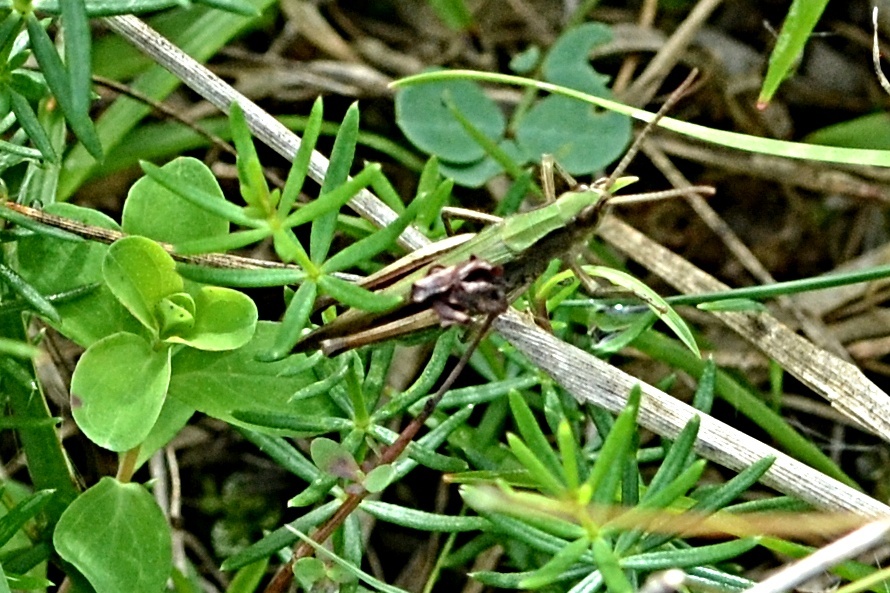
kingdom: Animalia
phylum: Arthropoda
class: Insecta
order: Orthoptera
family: Acrididae
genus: Chorthippus
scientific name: Chorthippus dorsatus
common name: Steppe grasshopper
